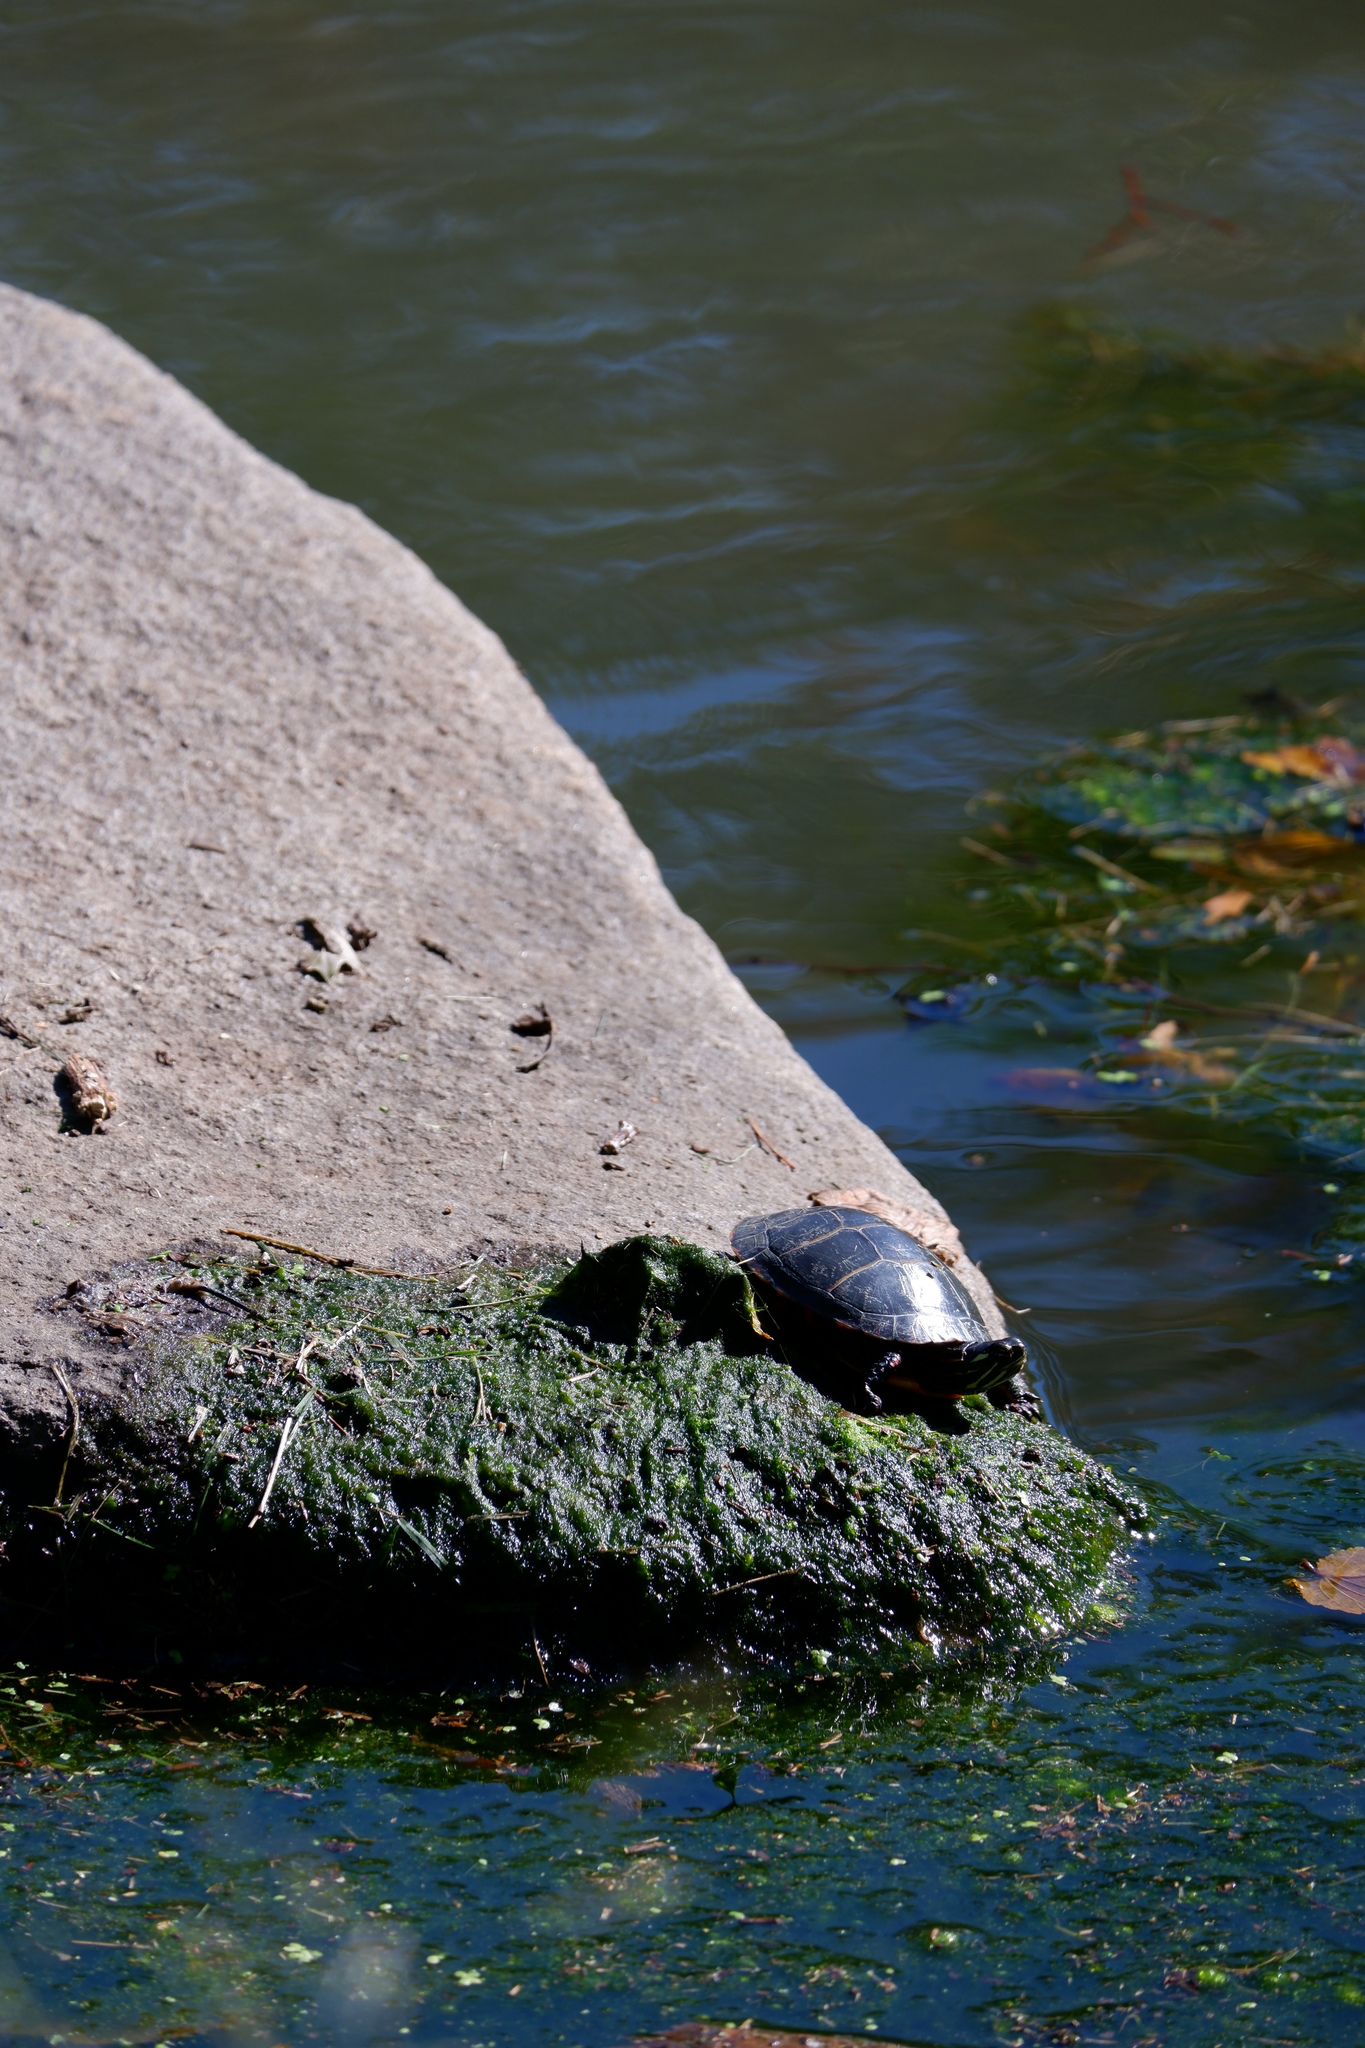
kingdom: Animalia
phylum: Chordata
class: Testudines
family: Emydidae
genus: Chrysemys
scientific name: Chrysemys picta
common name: Painted turtle
